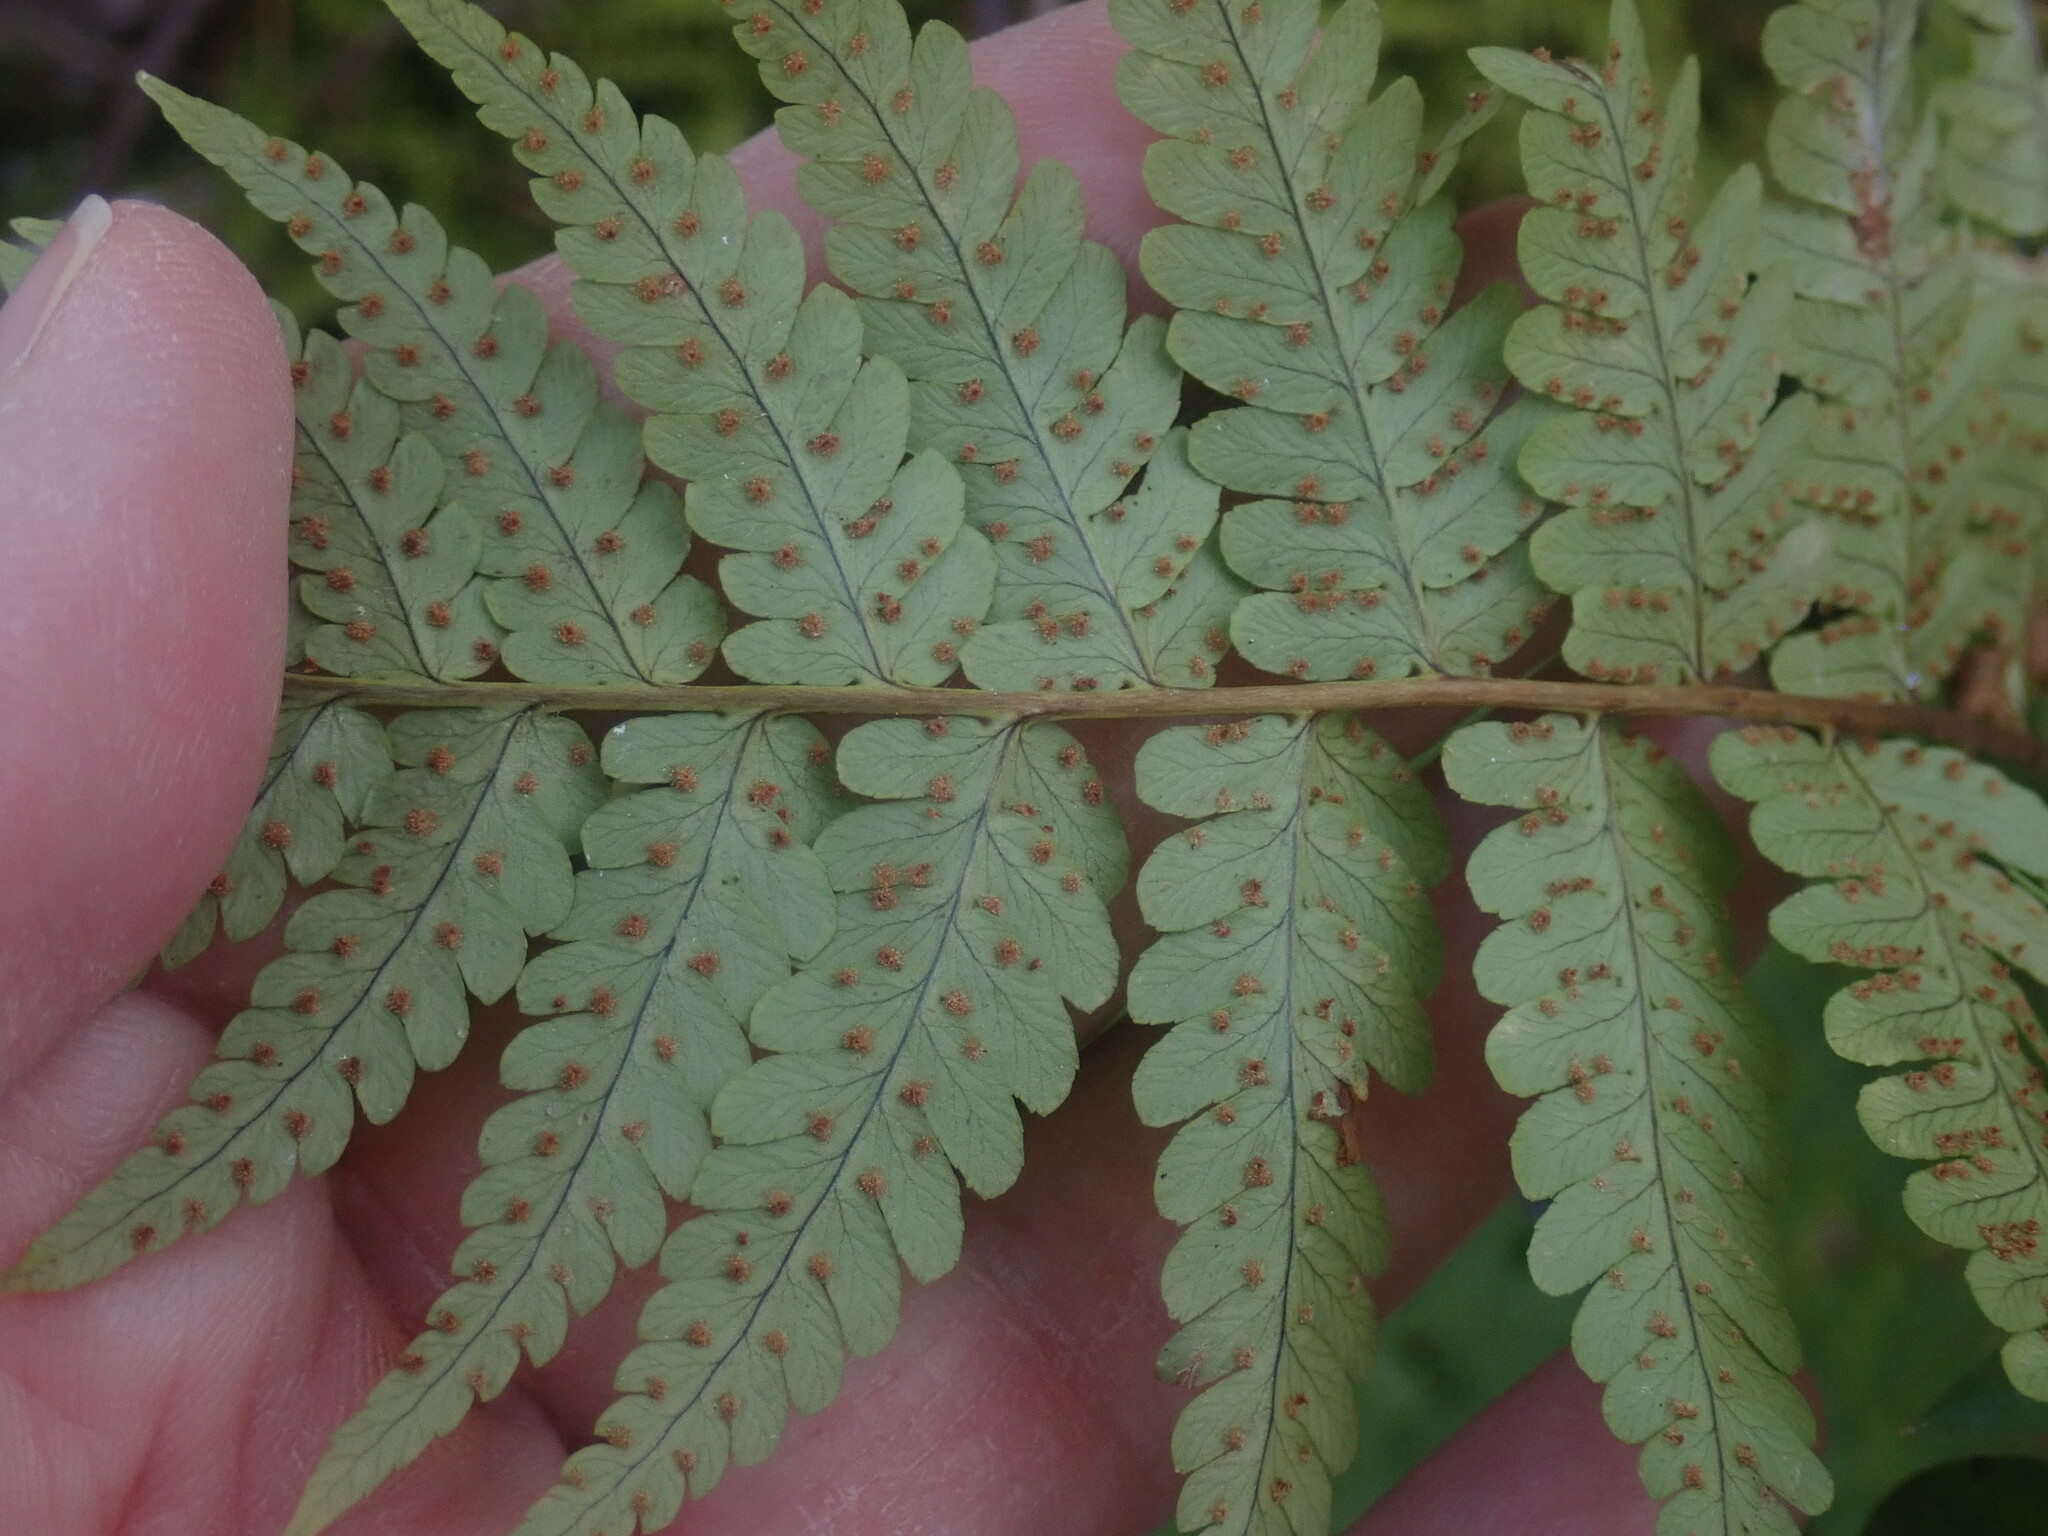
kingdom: Plantae
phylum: Tracheophyta
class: Polypodiopsida
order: Polypodiales
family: Dryopteridaceae
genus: Dryopteris
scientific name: Dryopteris marginalis
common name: Marginal wood fern
